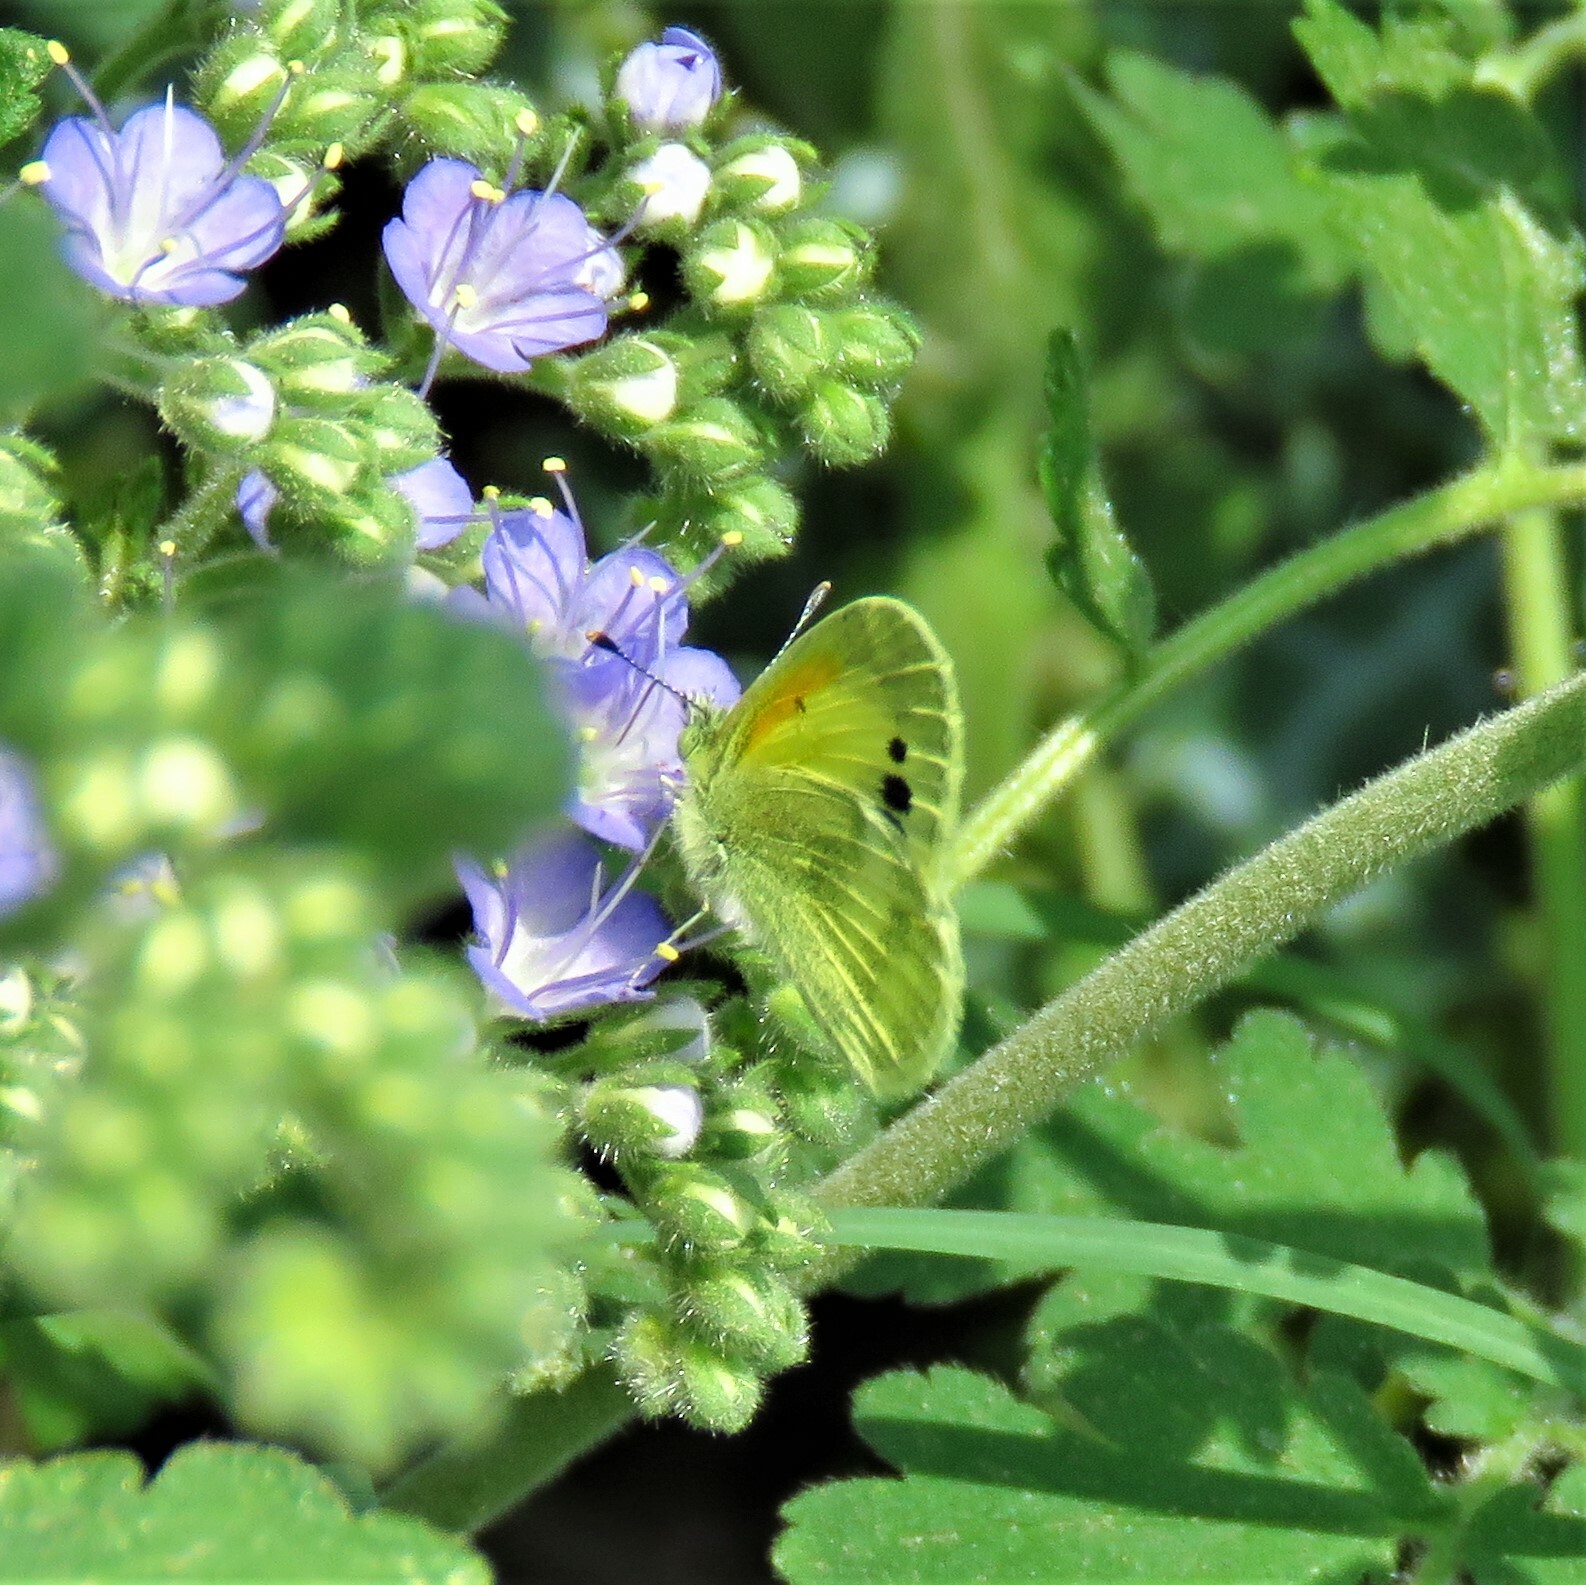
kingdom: Animalia
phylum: Arthropoda
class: Insecta
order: Lepidoptera
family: Pieridae
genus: Nathalis
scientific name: Nathalis iole
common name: Dainty sulphur
